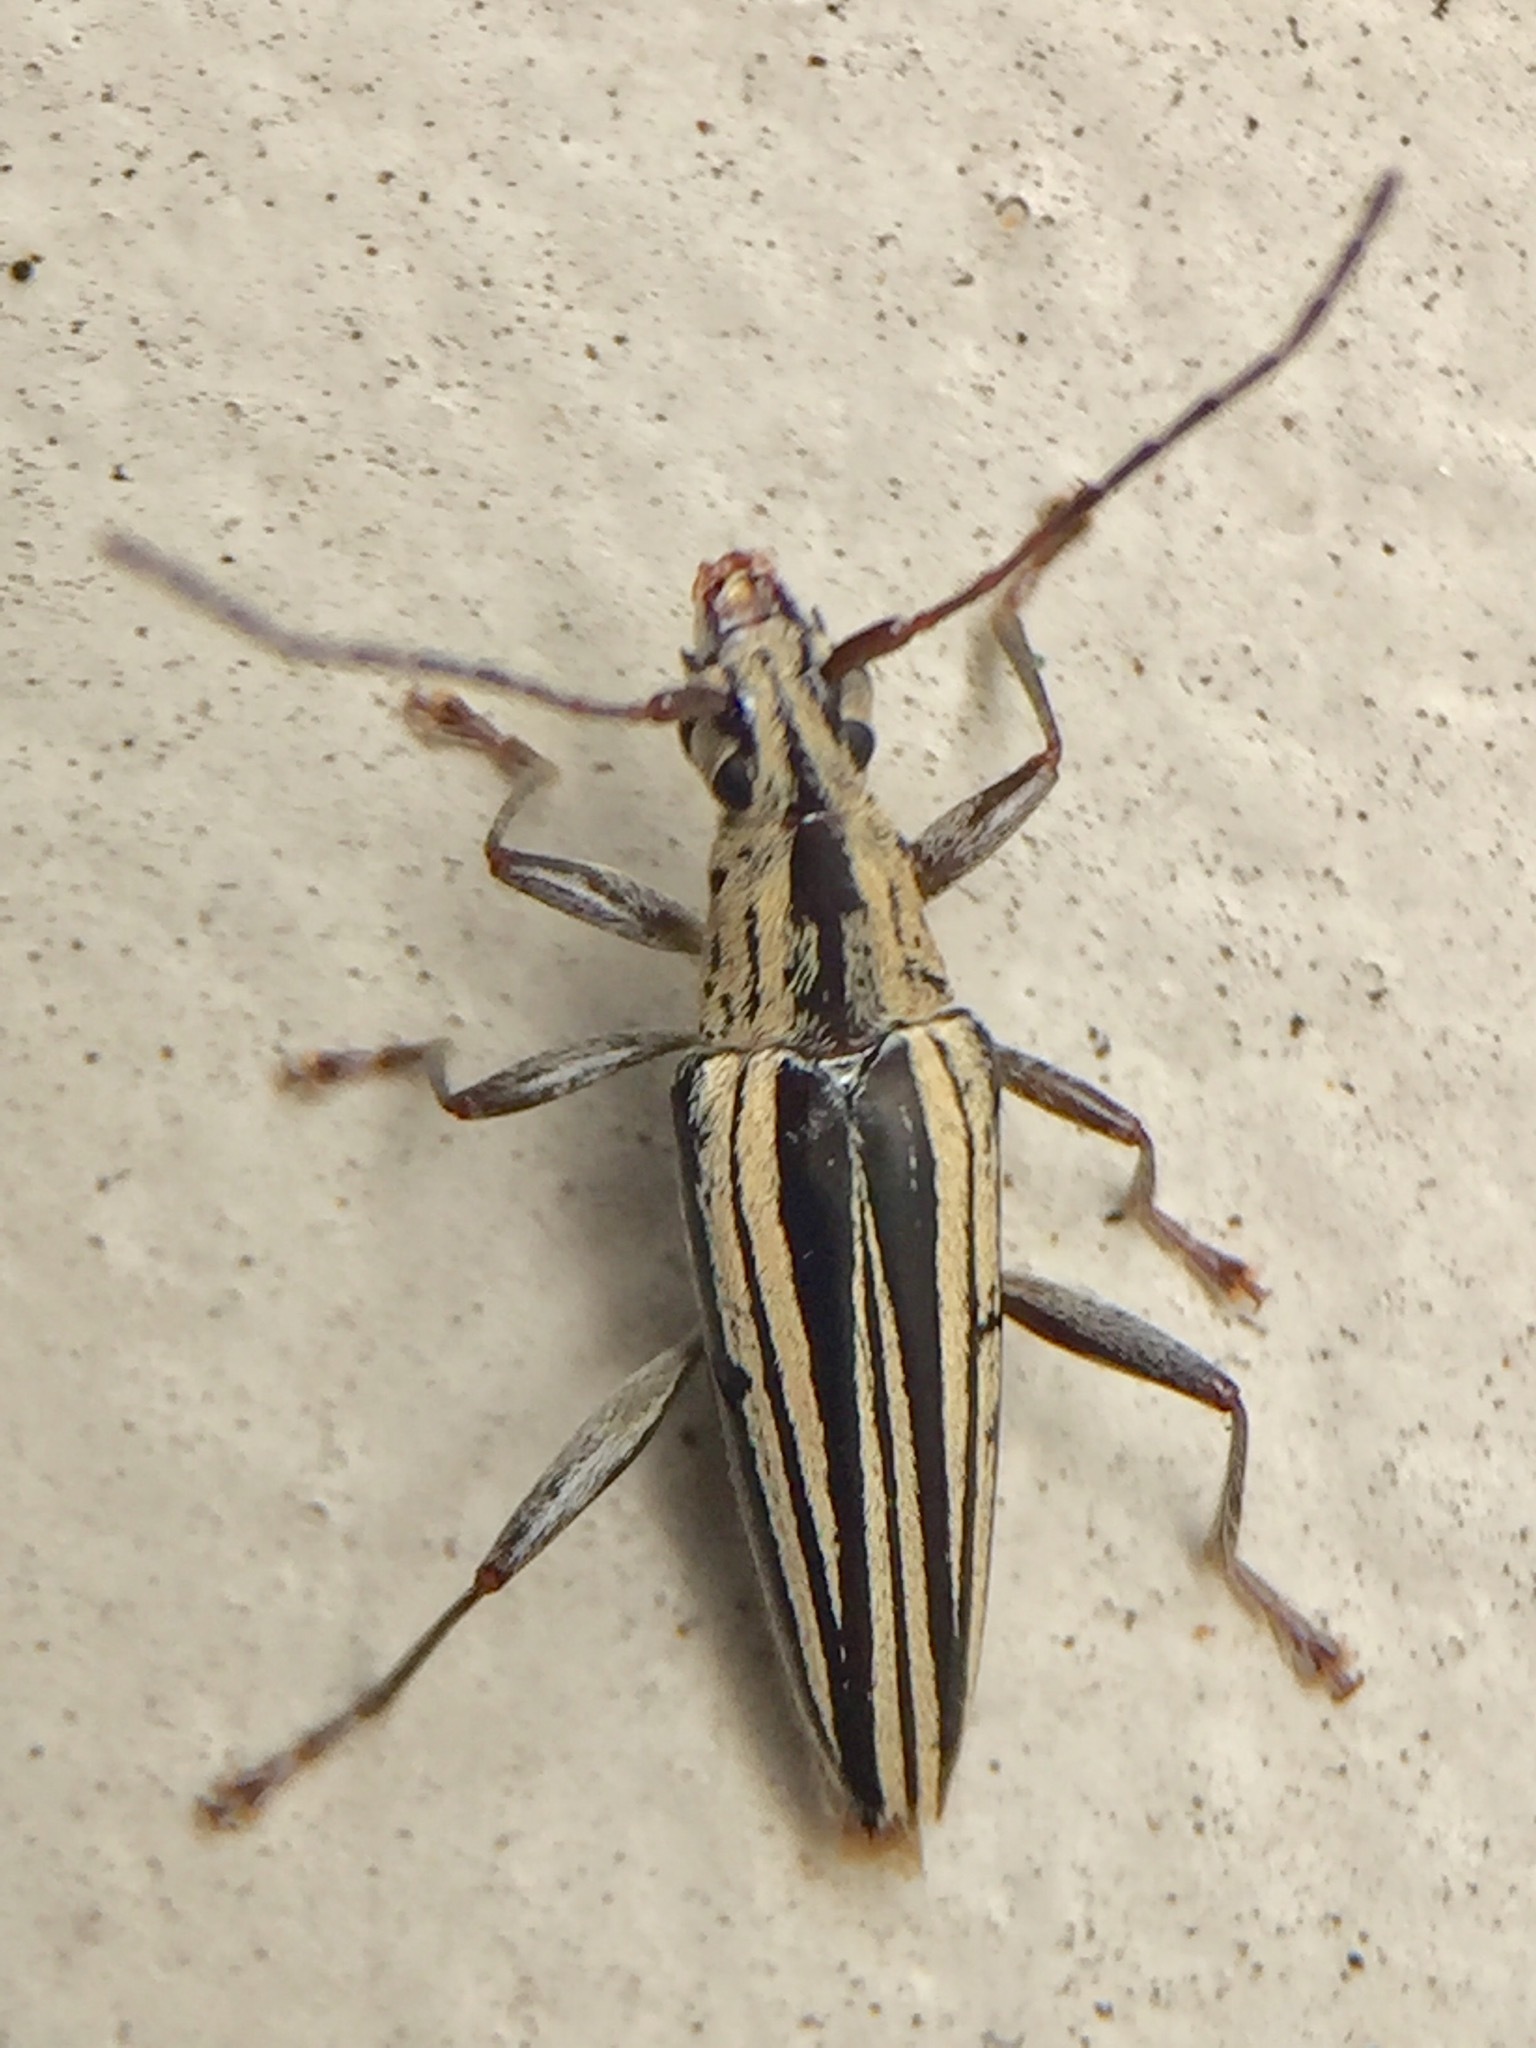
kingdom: Animalia
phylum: Arthropoda
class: Insecta
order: Coleoptera
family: Cerambycidae
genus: Coptomma
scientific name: Coptomma sulcatum
